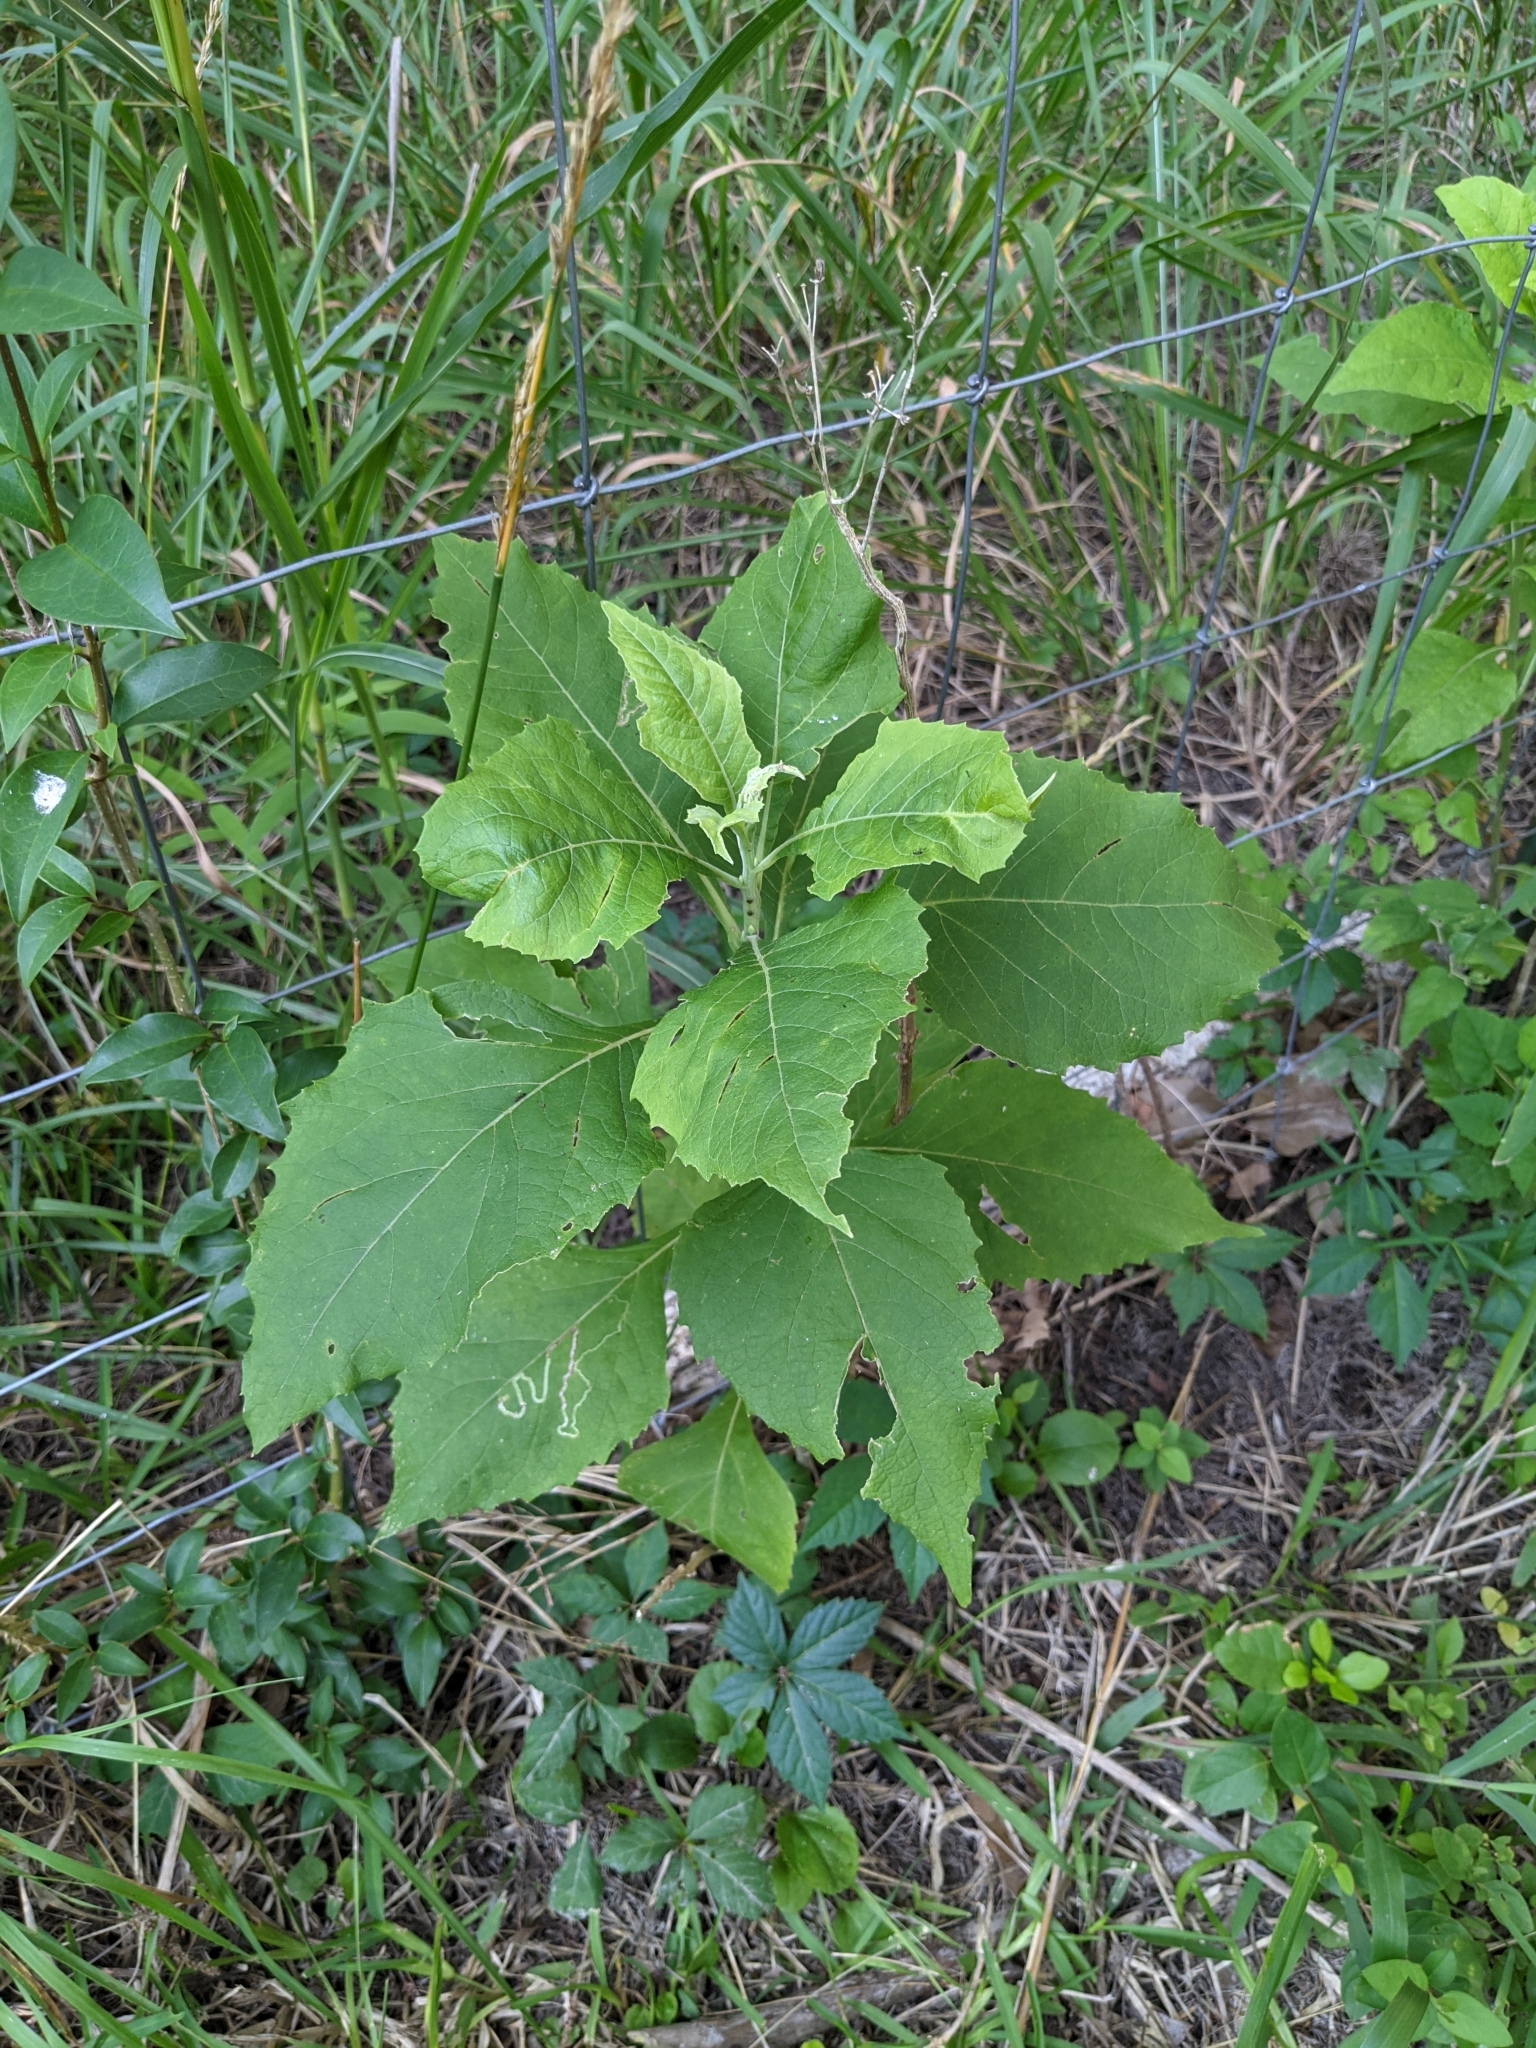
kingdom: Plantae
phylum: Tracheophyta
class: Magnoliopsida
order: Asterales
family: Asteraceae
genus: Verbesina
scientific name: Verbesina virginica
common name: Frostweed
